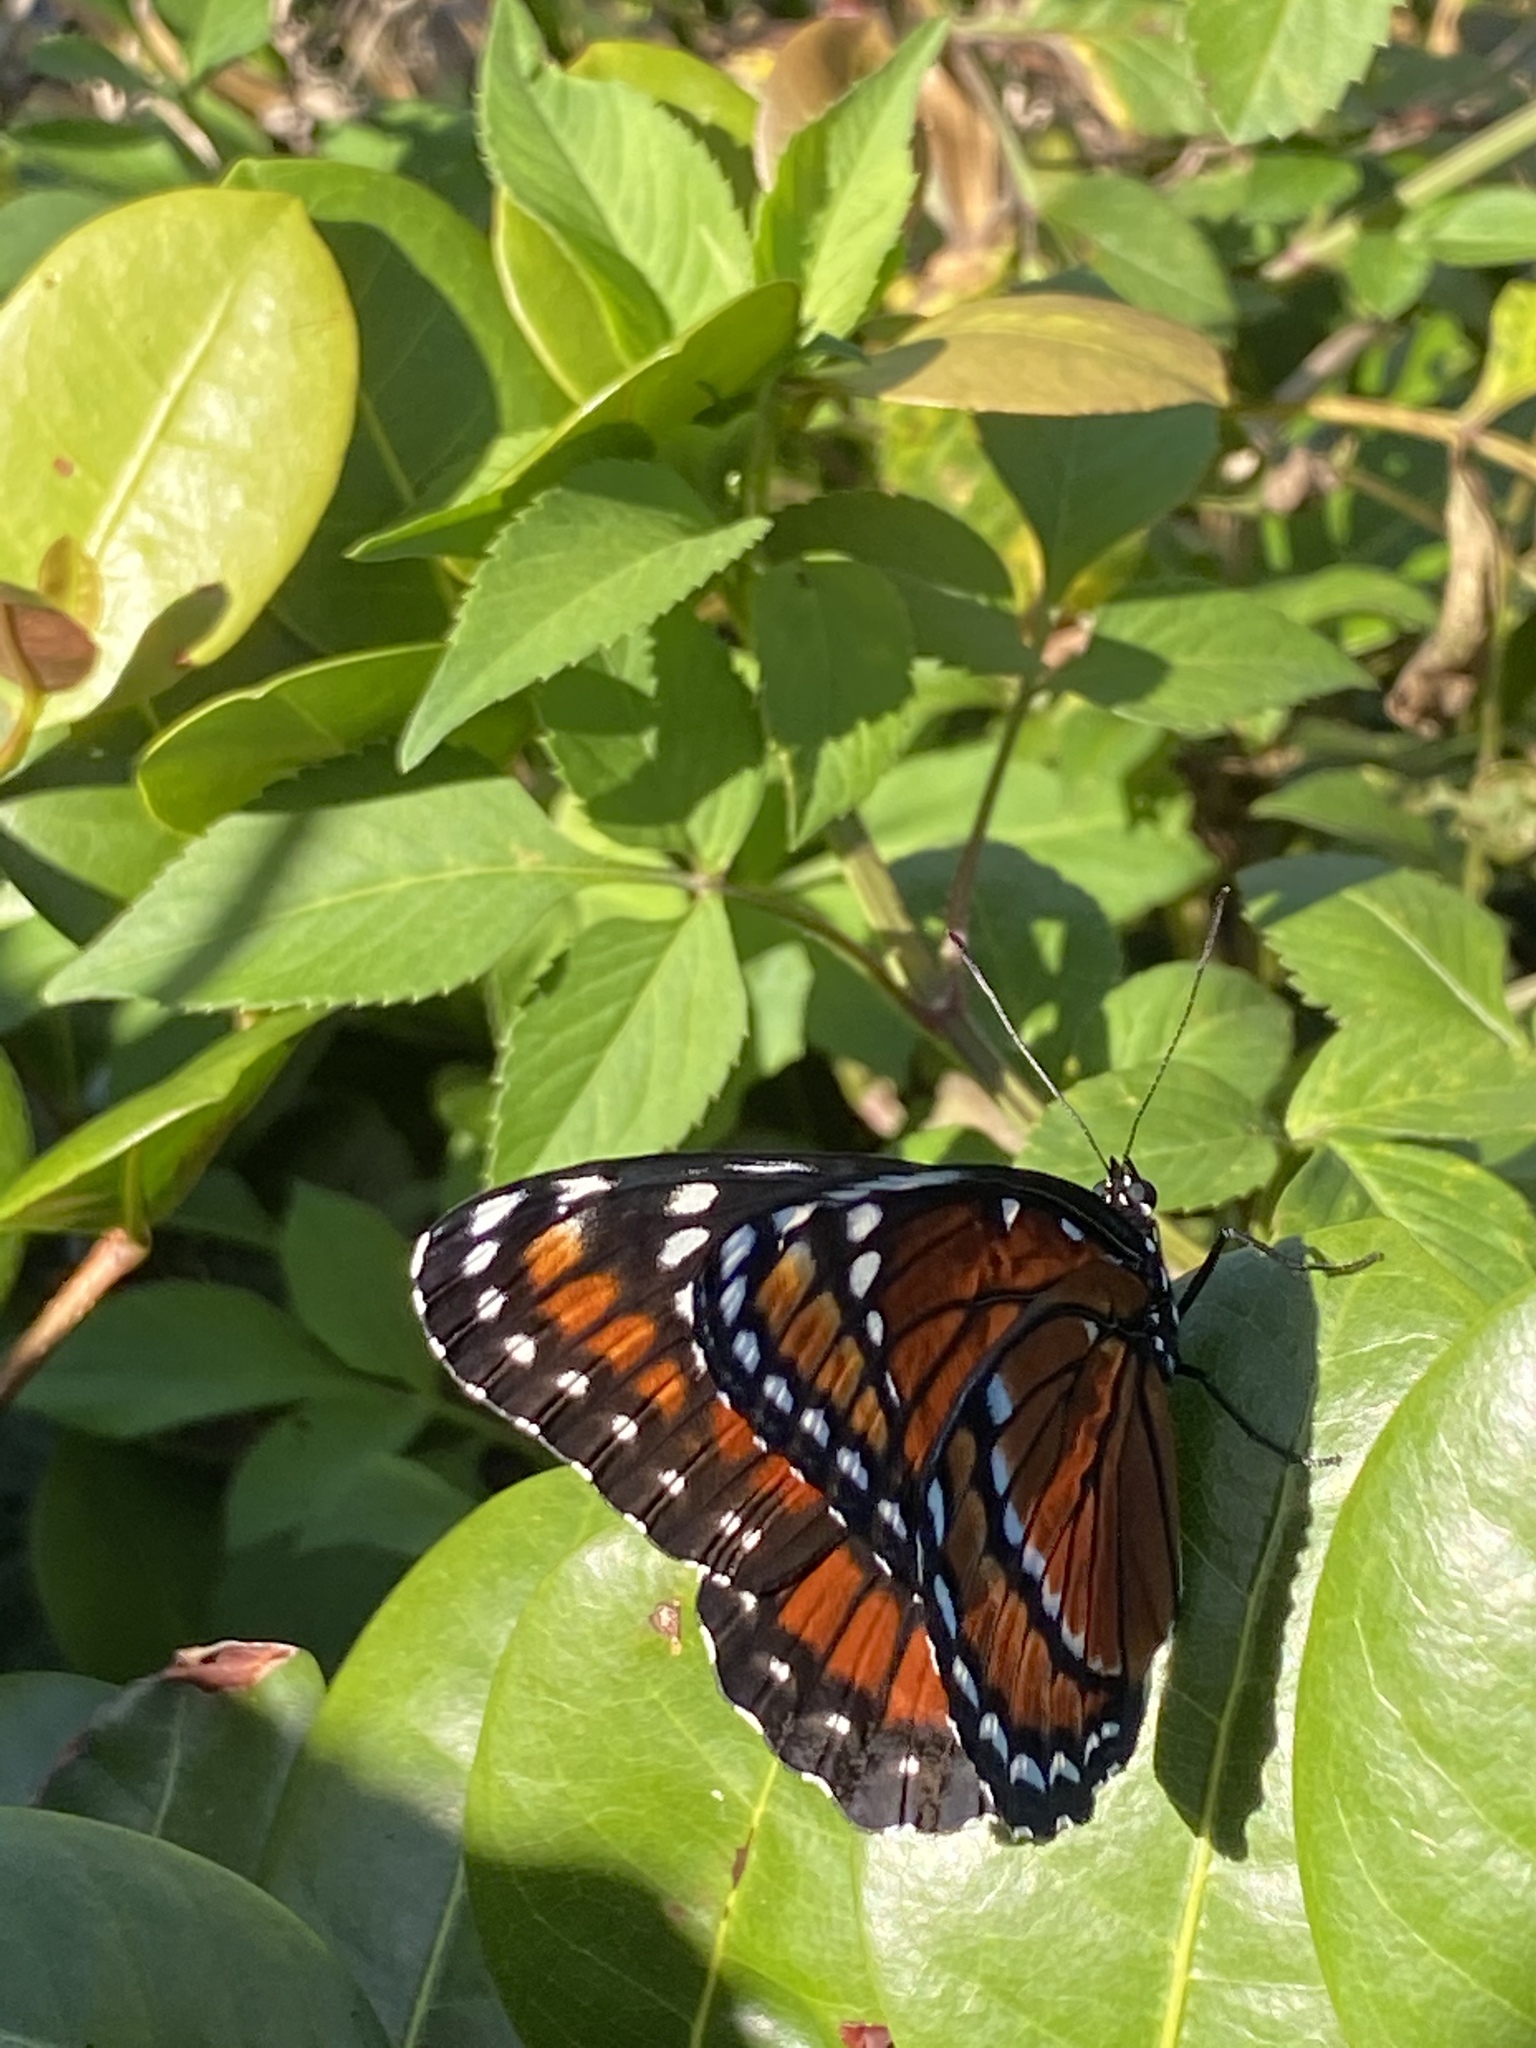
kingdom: Animalia
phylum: Arthropoda
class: Insecta
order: Lepidoptera
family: Nymphalidae
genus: Limenitis
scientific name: Limenitis archippus
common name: Viceroy
